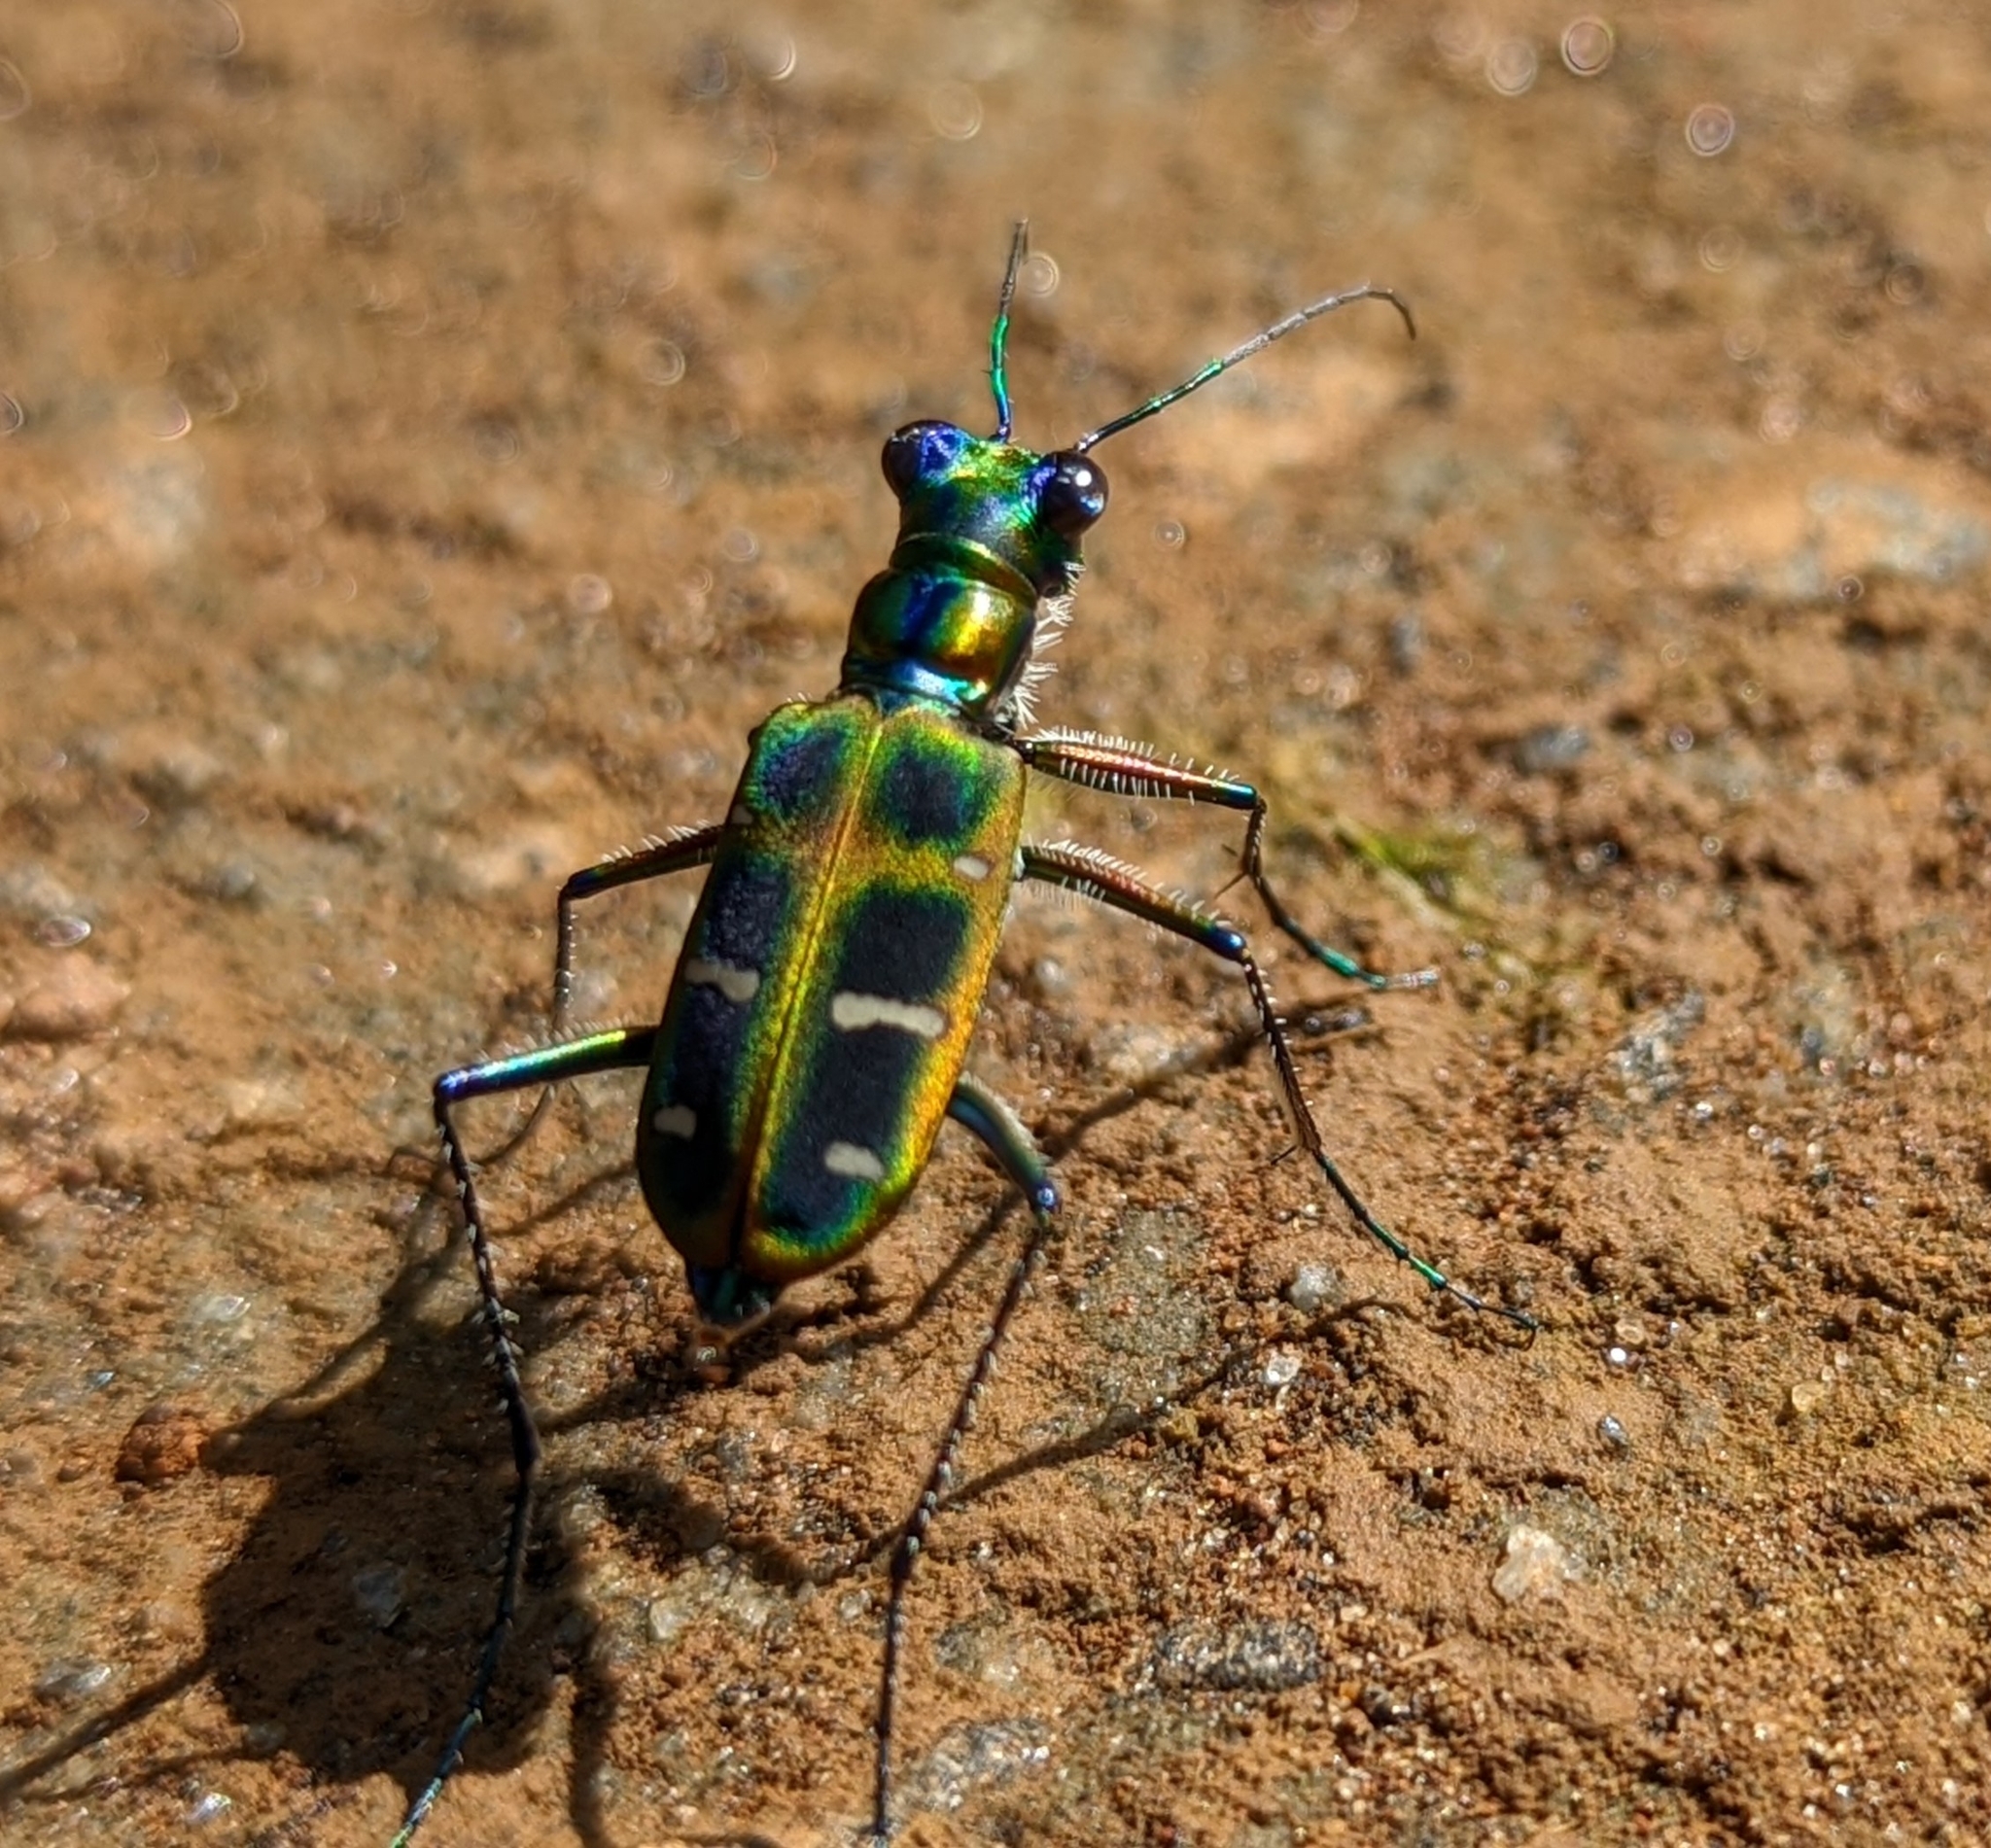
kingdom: Animalia
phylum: Arthropoda
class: Insecta
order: Coleoptera
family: Carabidae
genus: Cicindela
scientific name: Cicindela barmanica
